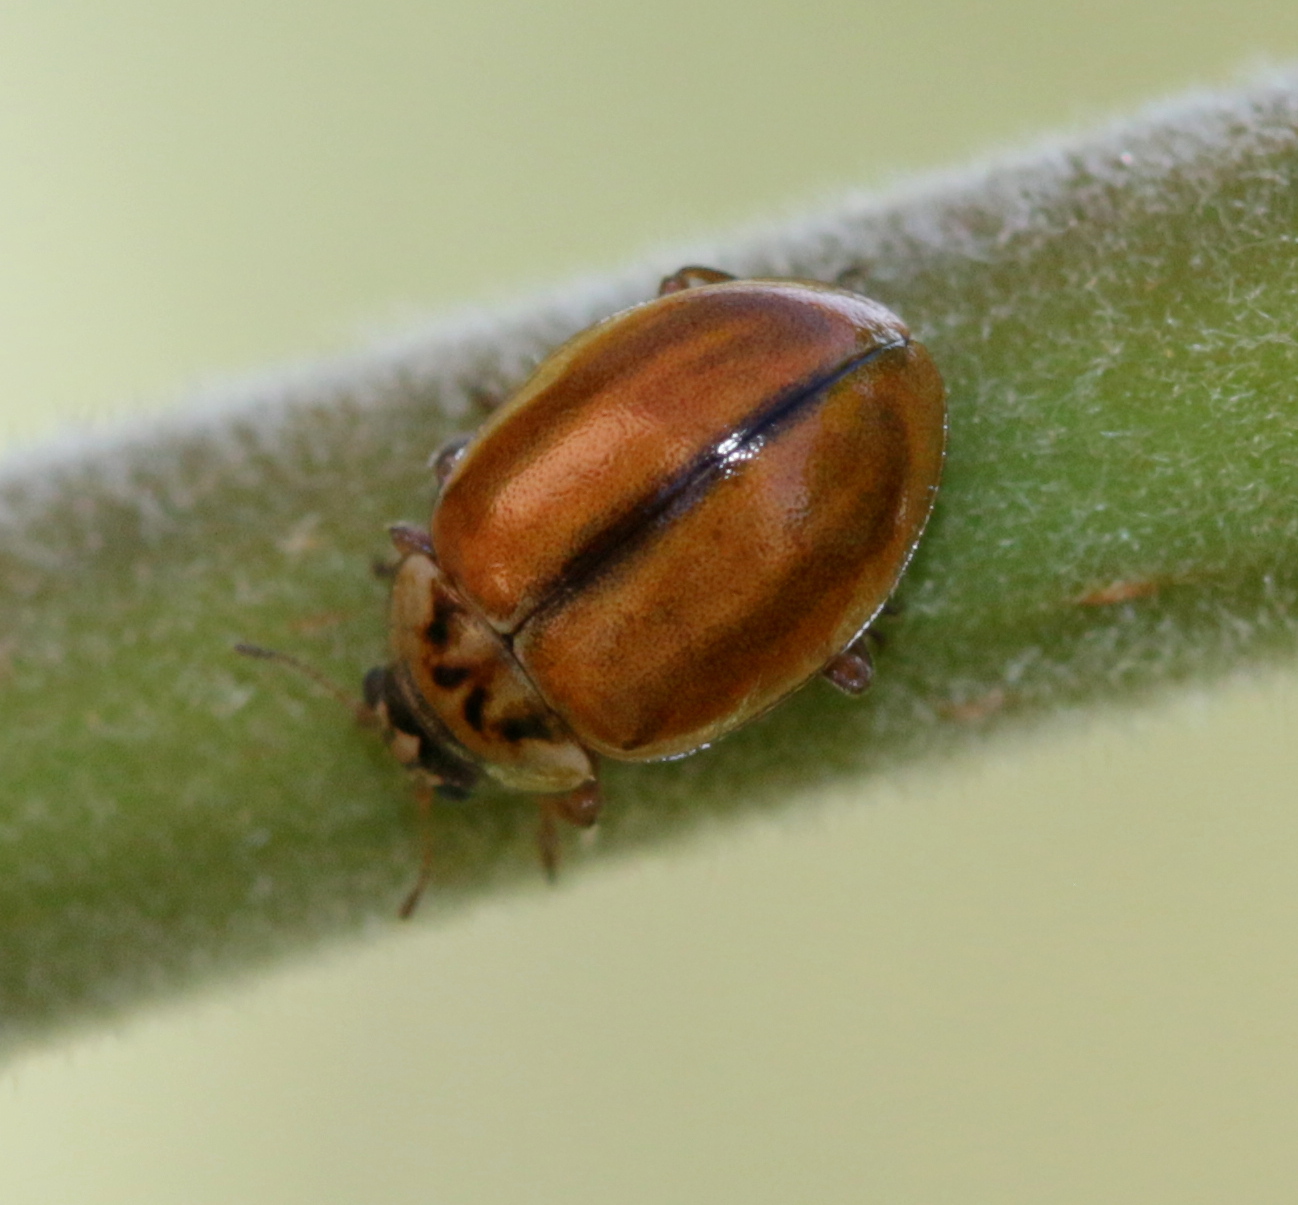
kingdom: Animalia
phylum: Arthropoda
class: Insecta
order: Coleoptera
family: Coccinellidae
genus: Aphidecta
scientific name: Aphidecta obliterata
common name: Larch ladybird
